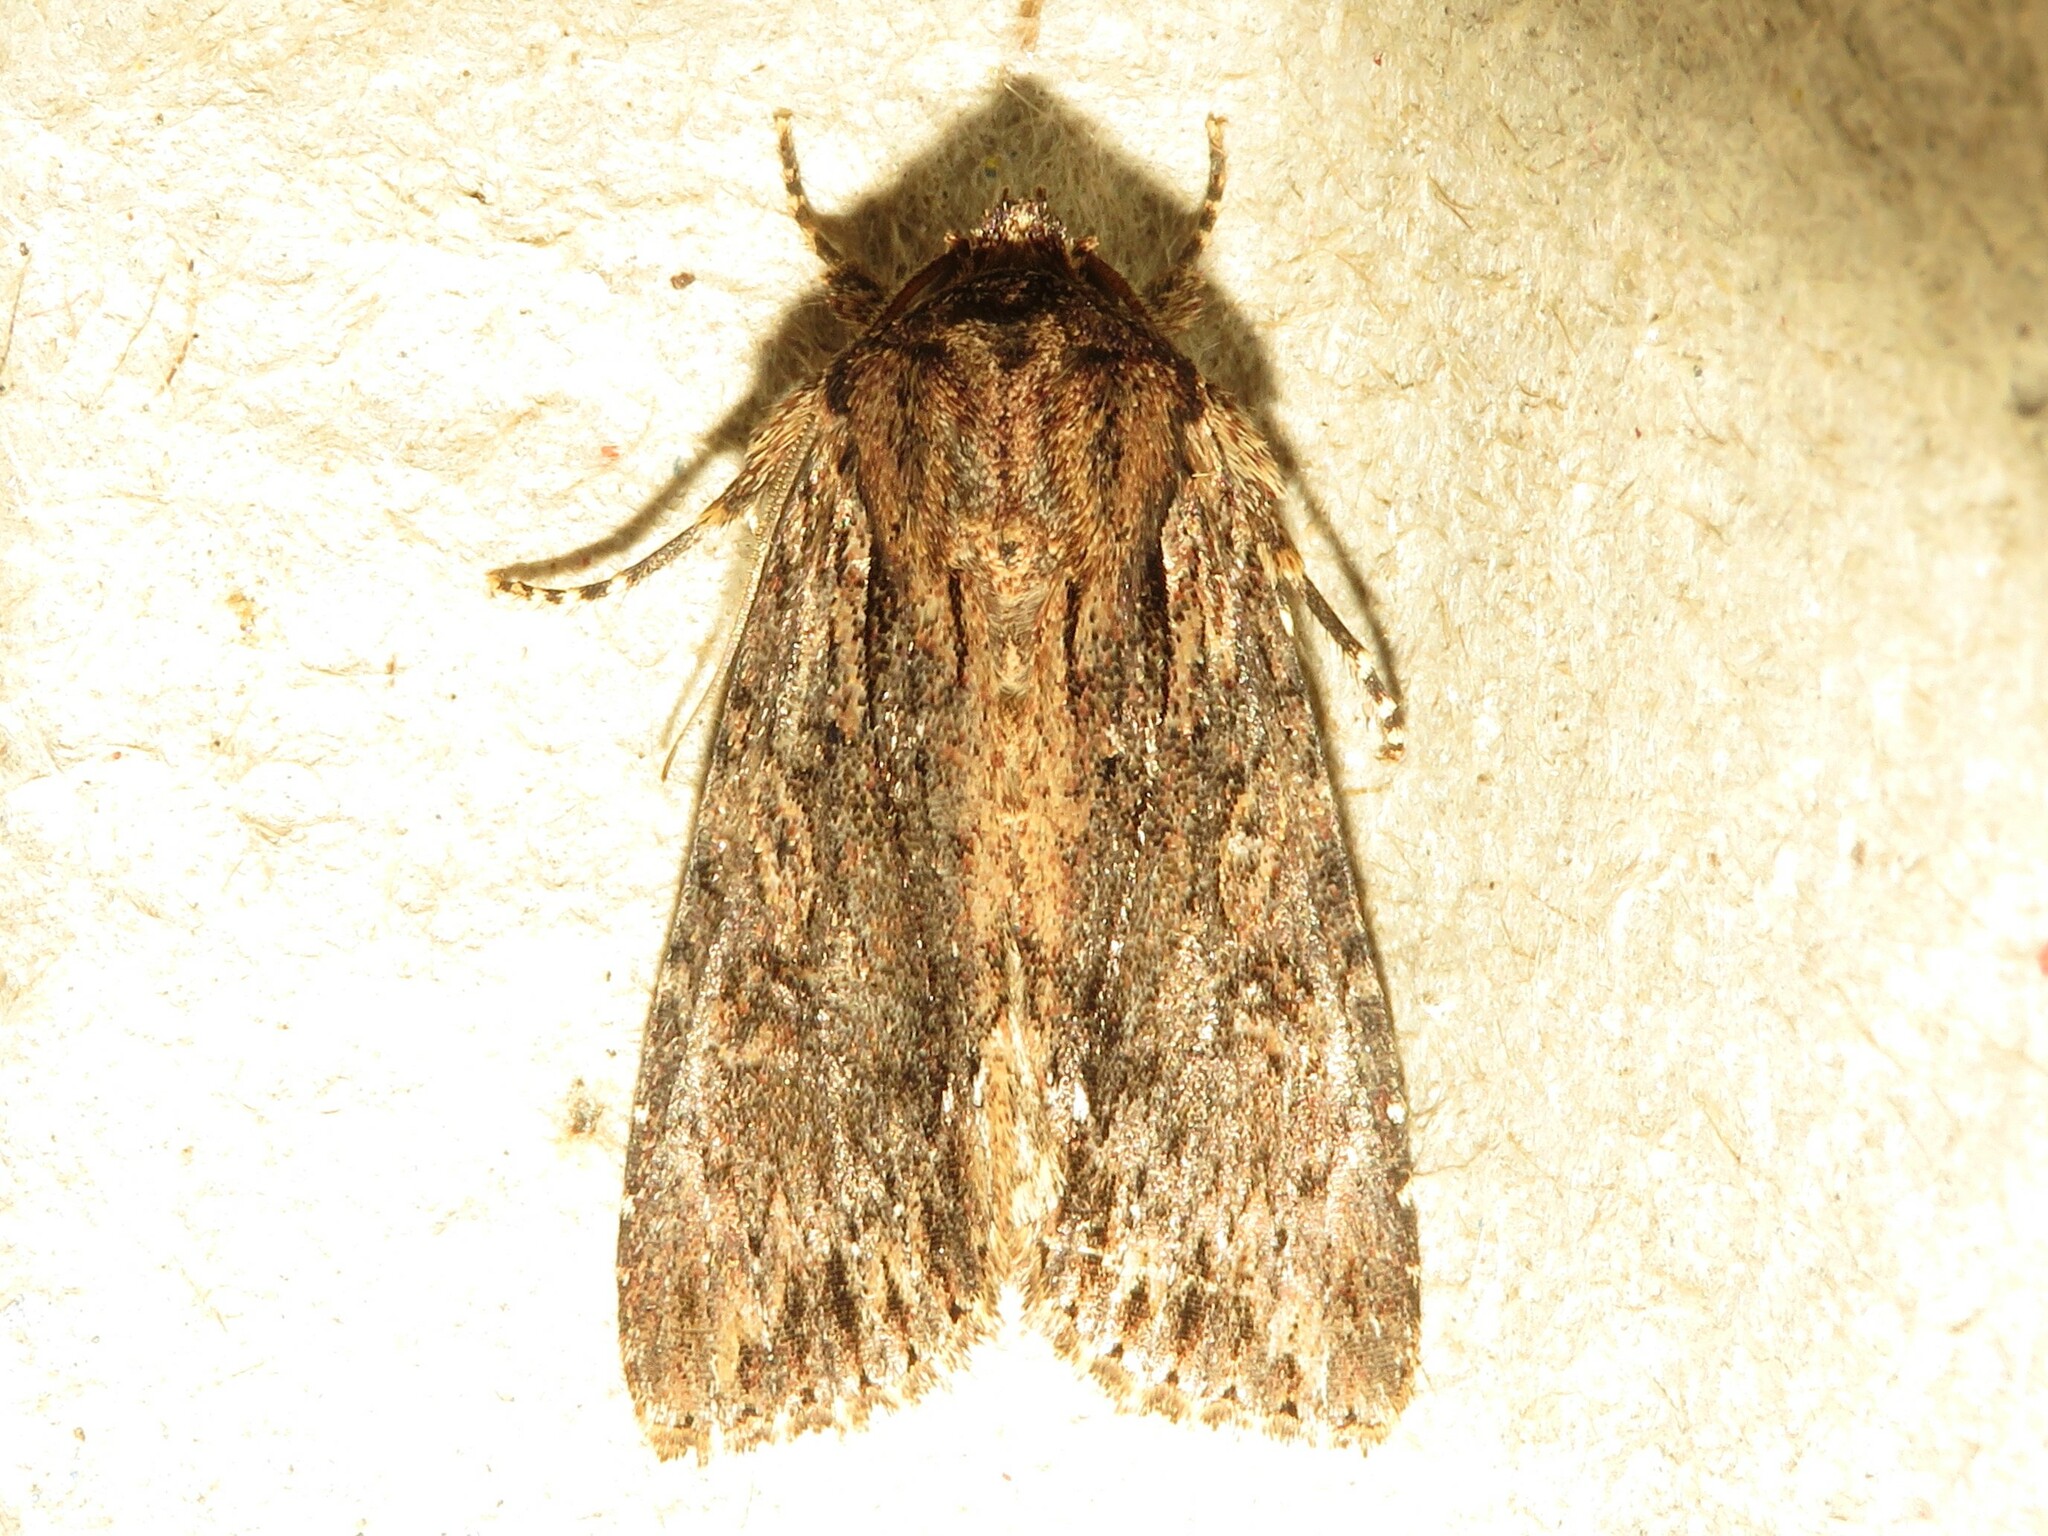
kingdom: Animalia
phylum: Arthropoda
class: Insecta
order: Lepidoptera
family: Noctuidae
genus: Achatia
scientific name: Achatia confusa
